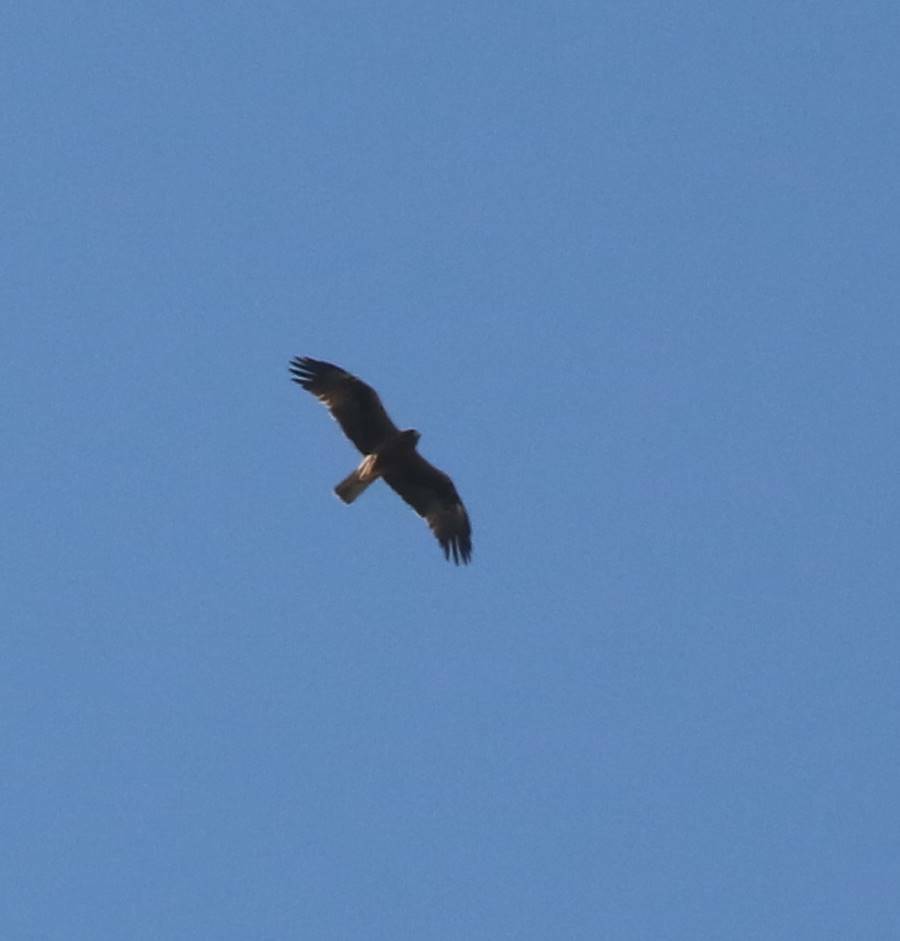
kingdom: Animalia
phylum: Chordata
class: Aves
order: Accipitriformes
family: Accipitridae
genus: Hieraaetus
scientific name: Hieraaetus pennatus
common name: Booted eagle
